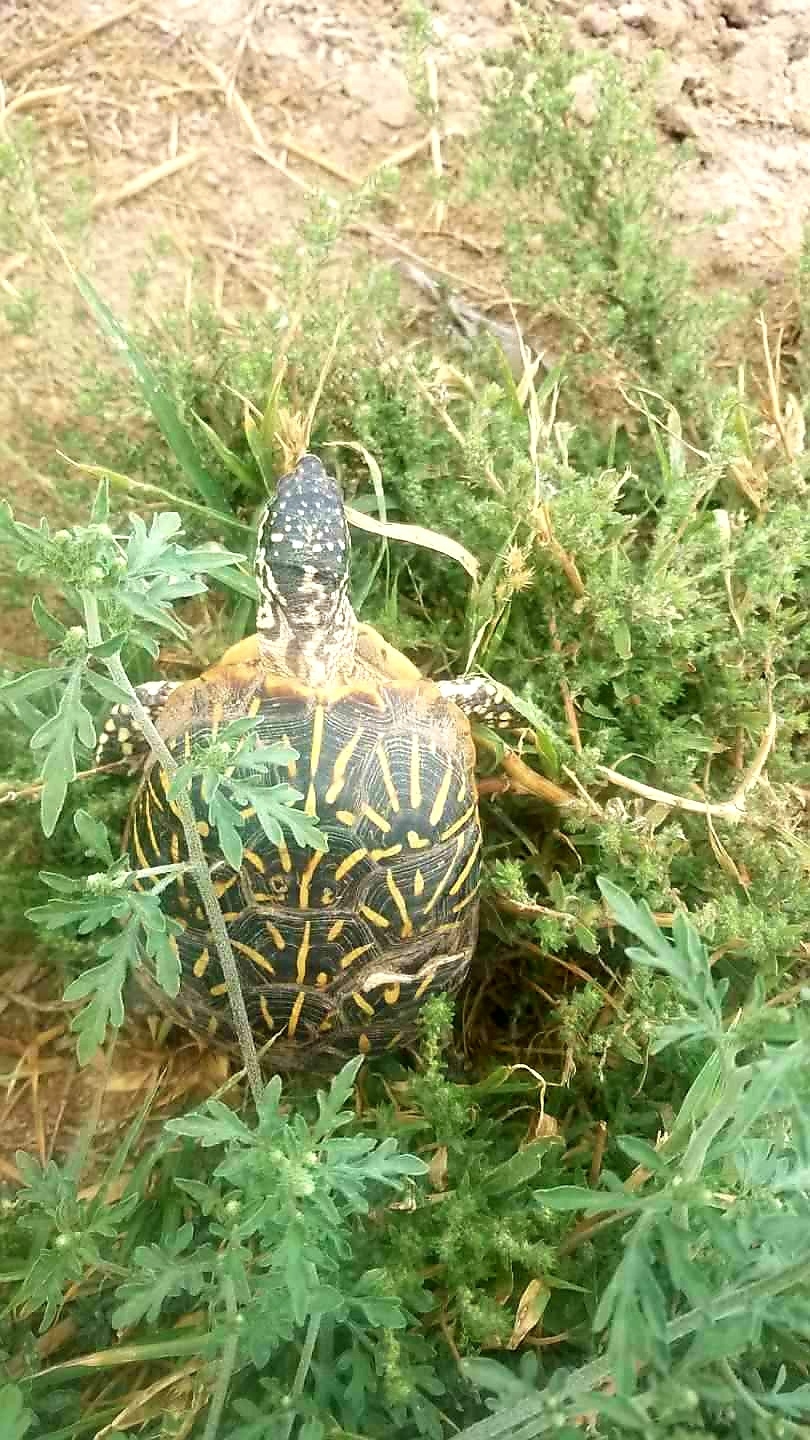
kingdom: Animalia
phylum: Chordata
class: Testudines
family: Emydidae
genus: Terrapene
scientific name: Terrapene ornata
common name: Western box turtle
